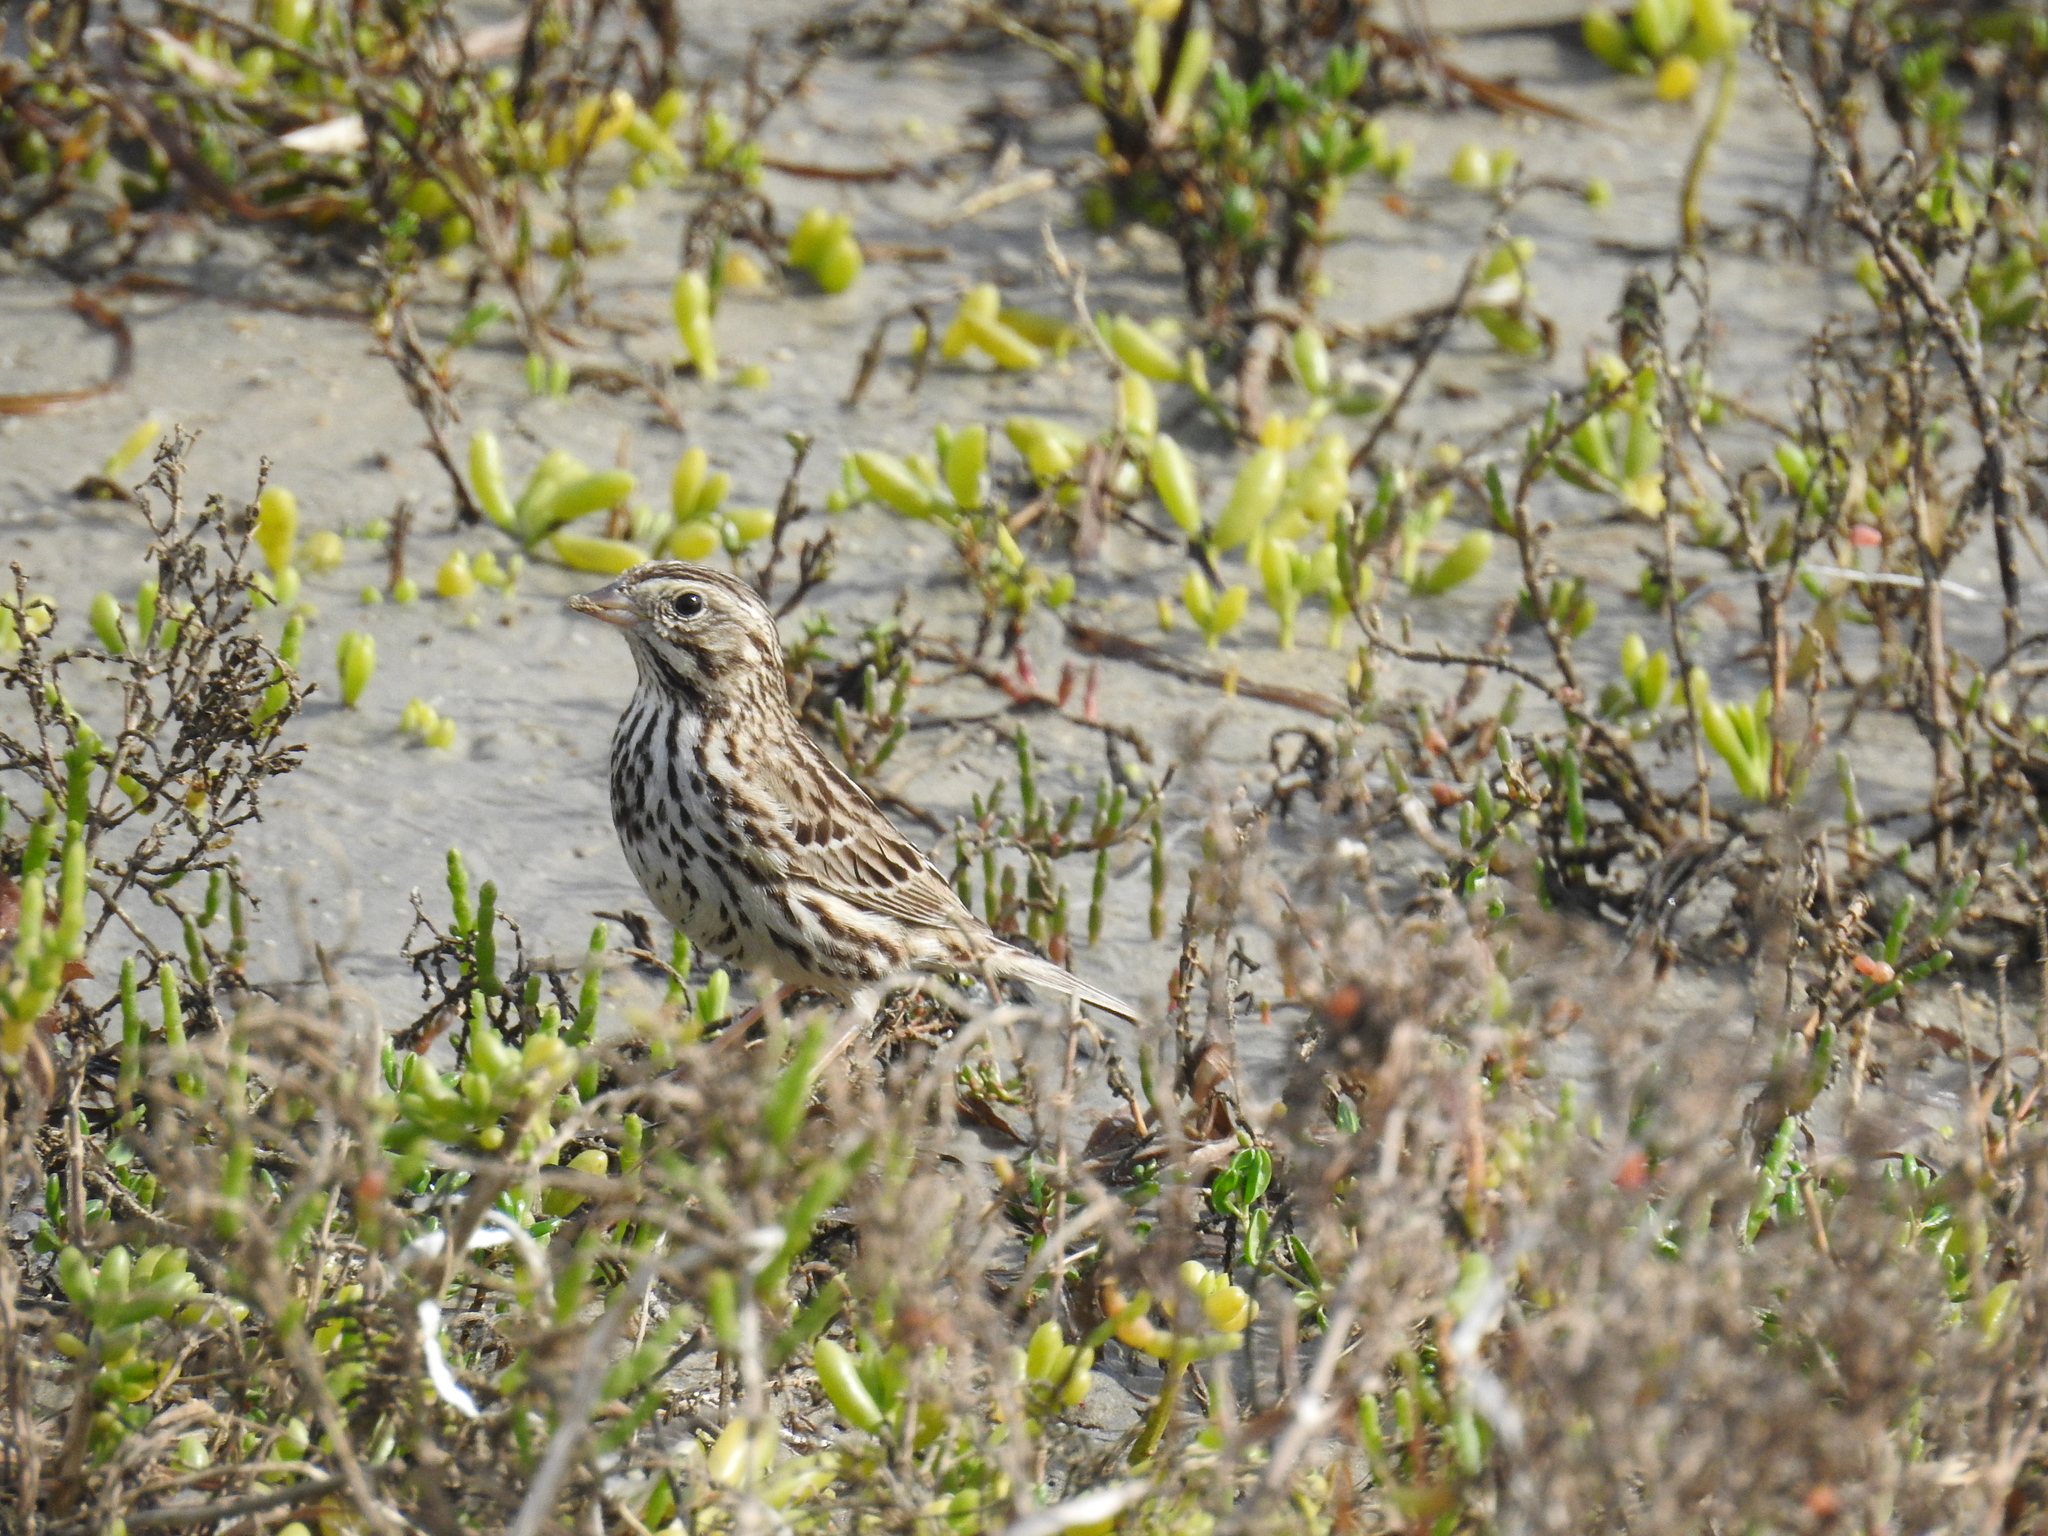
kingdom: Animalia
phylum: Chordata
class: Aves
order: Passeriformes
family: Passerellidae
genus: Passerculus
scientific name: Passerculus sandwichensis
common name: Savannah sparrow
